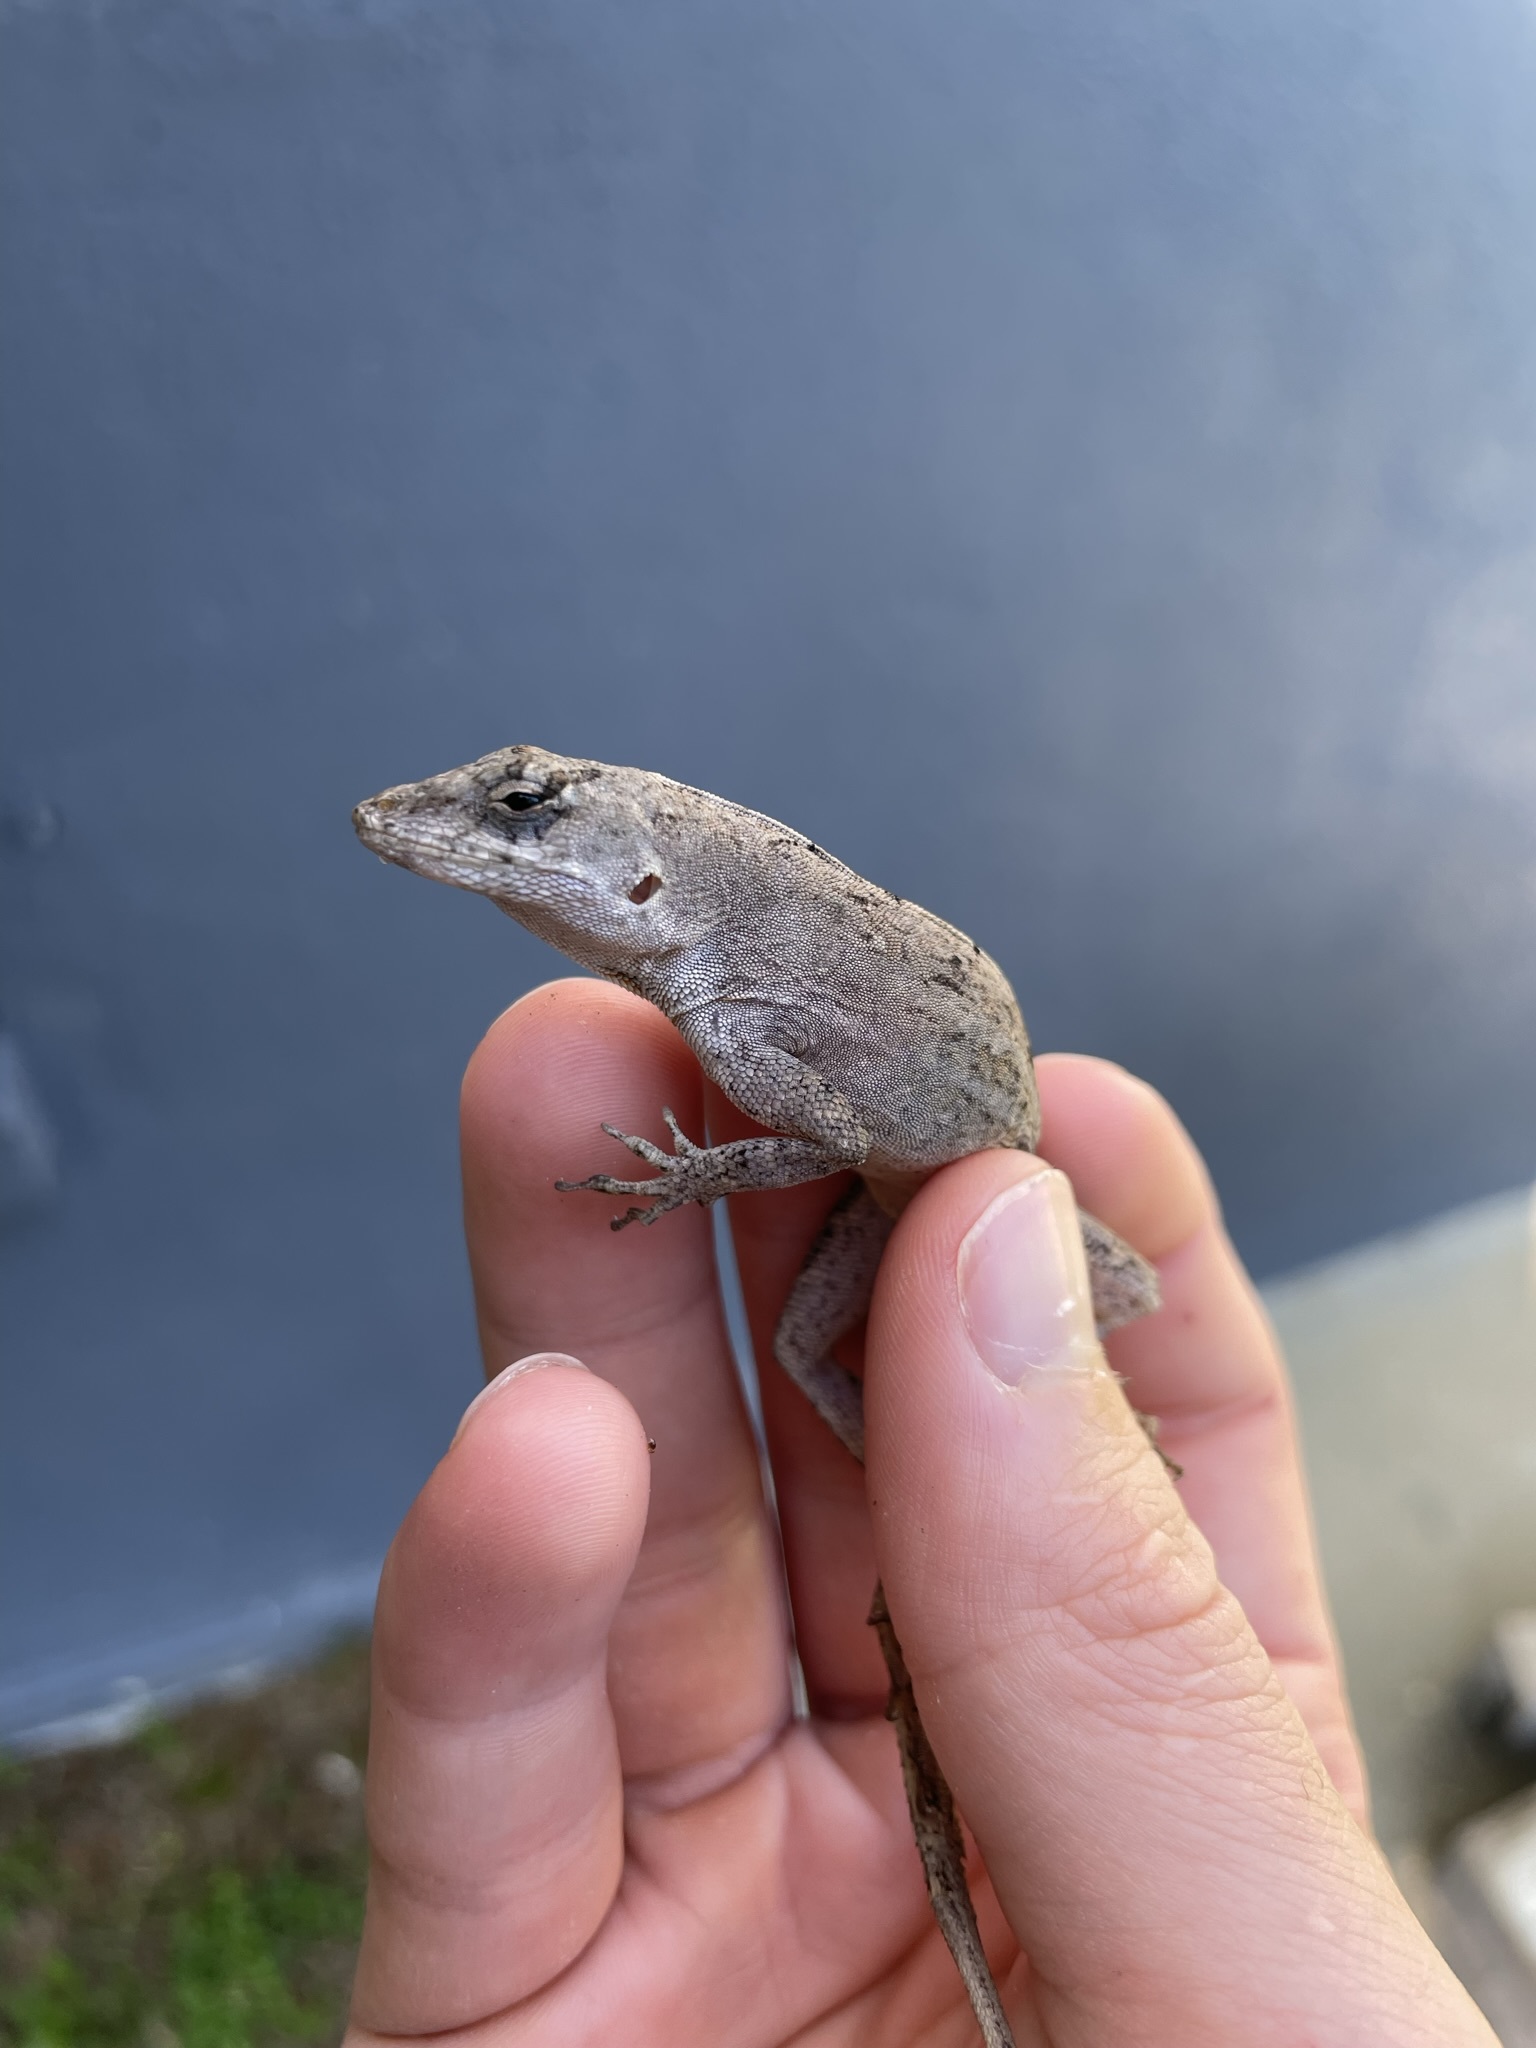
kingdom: Animalia
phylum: Chordata
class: Squamata
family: Dactyloidae
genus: Anolis
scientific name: Anolis sagrei
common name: Brown anole
